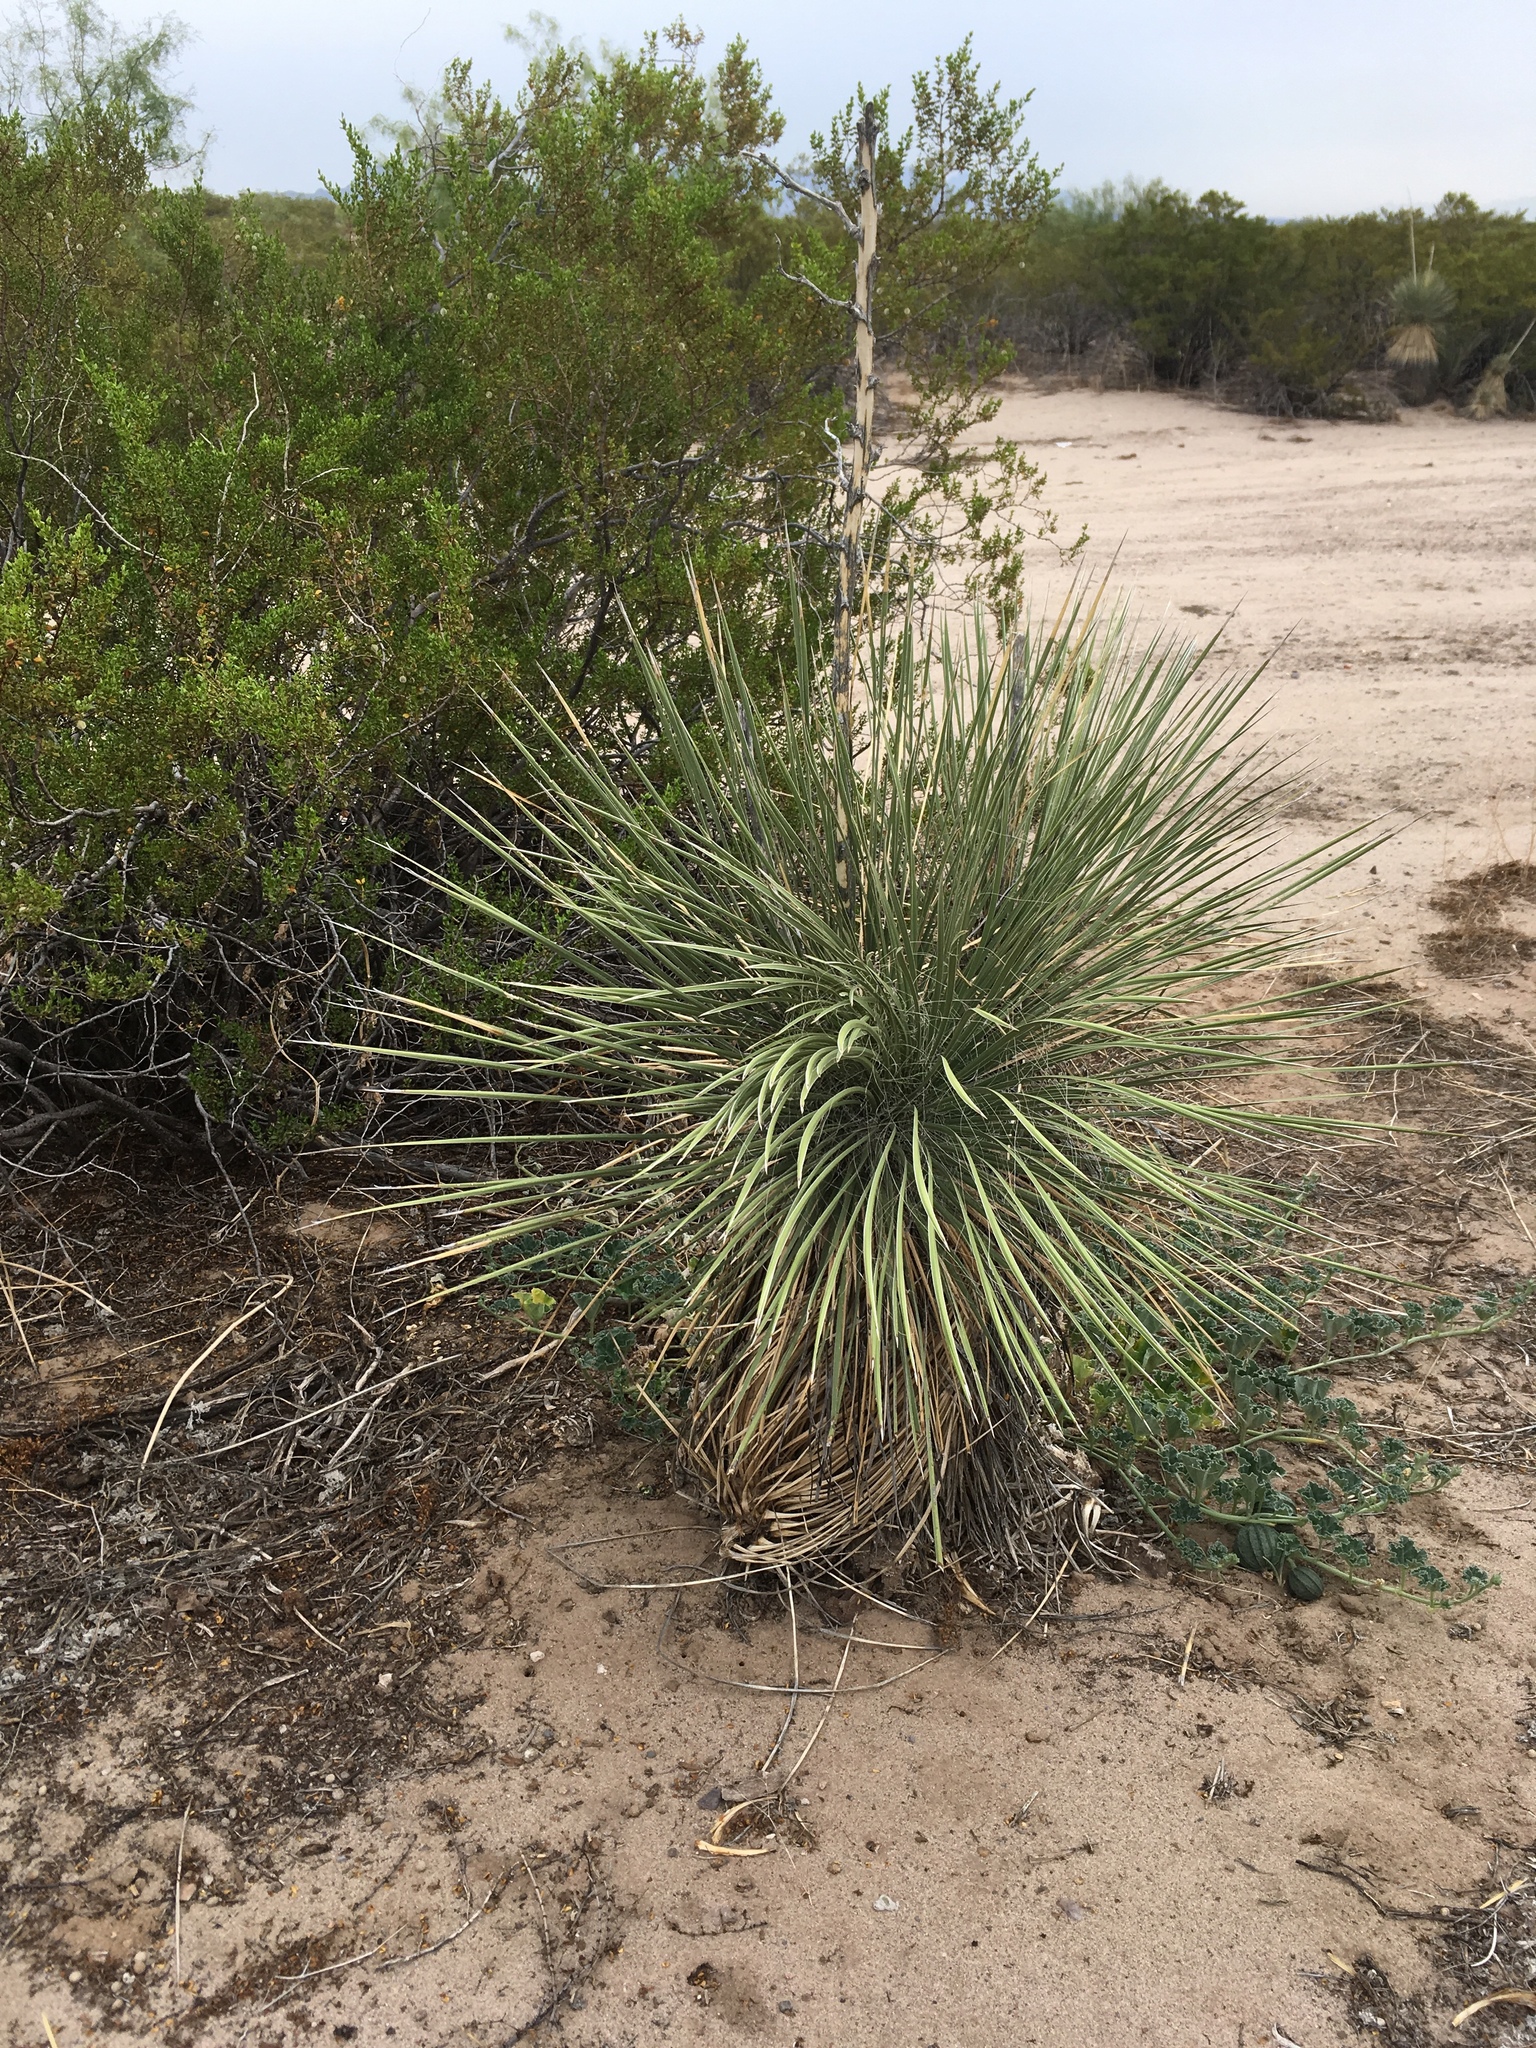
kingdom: Plantae
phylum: Tracheophyta
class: Liliopsida
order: Asparagales
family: Asparagaceae
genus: Yucca
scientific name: Yucca elata
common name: Palmella
